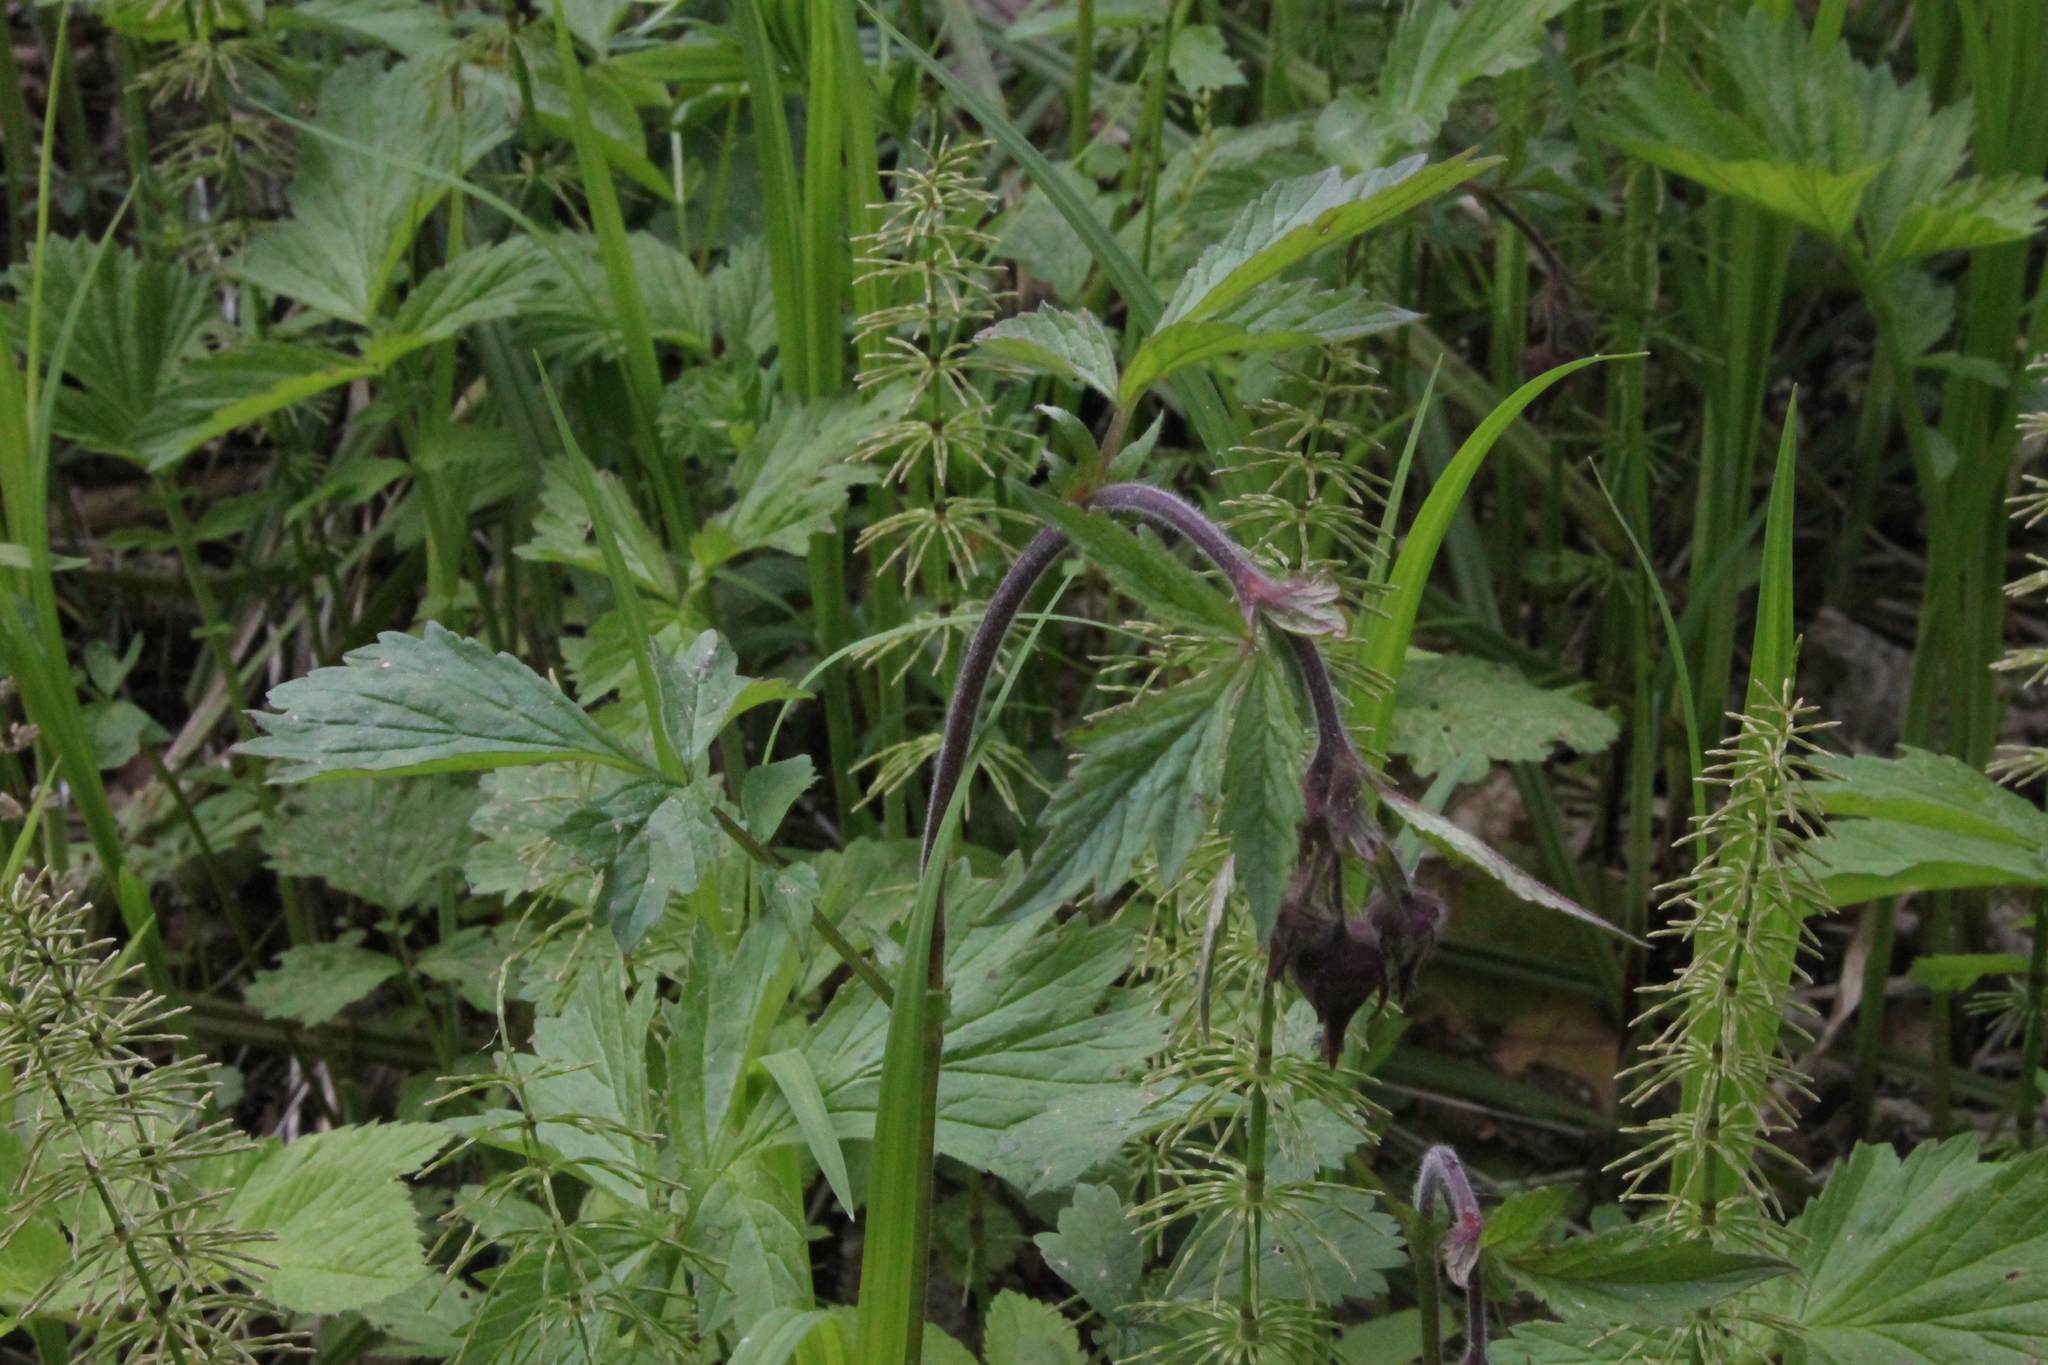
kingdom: Plantae
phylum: Tracheophyta
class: Magnoliopsida
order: Rosales
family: Rosaceae
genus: Geum
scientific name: Geum rivale
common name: Water avens
